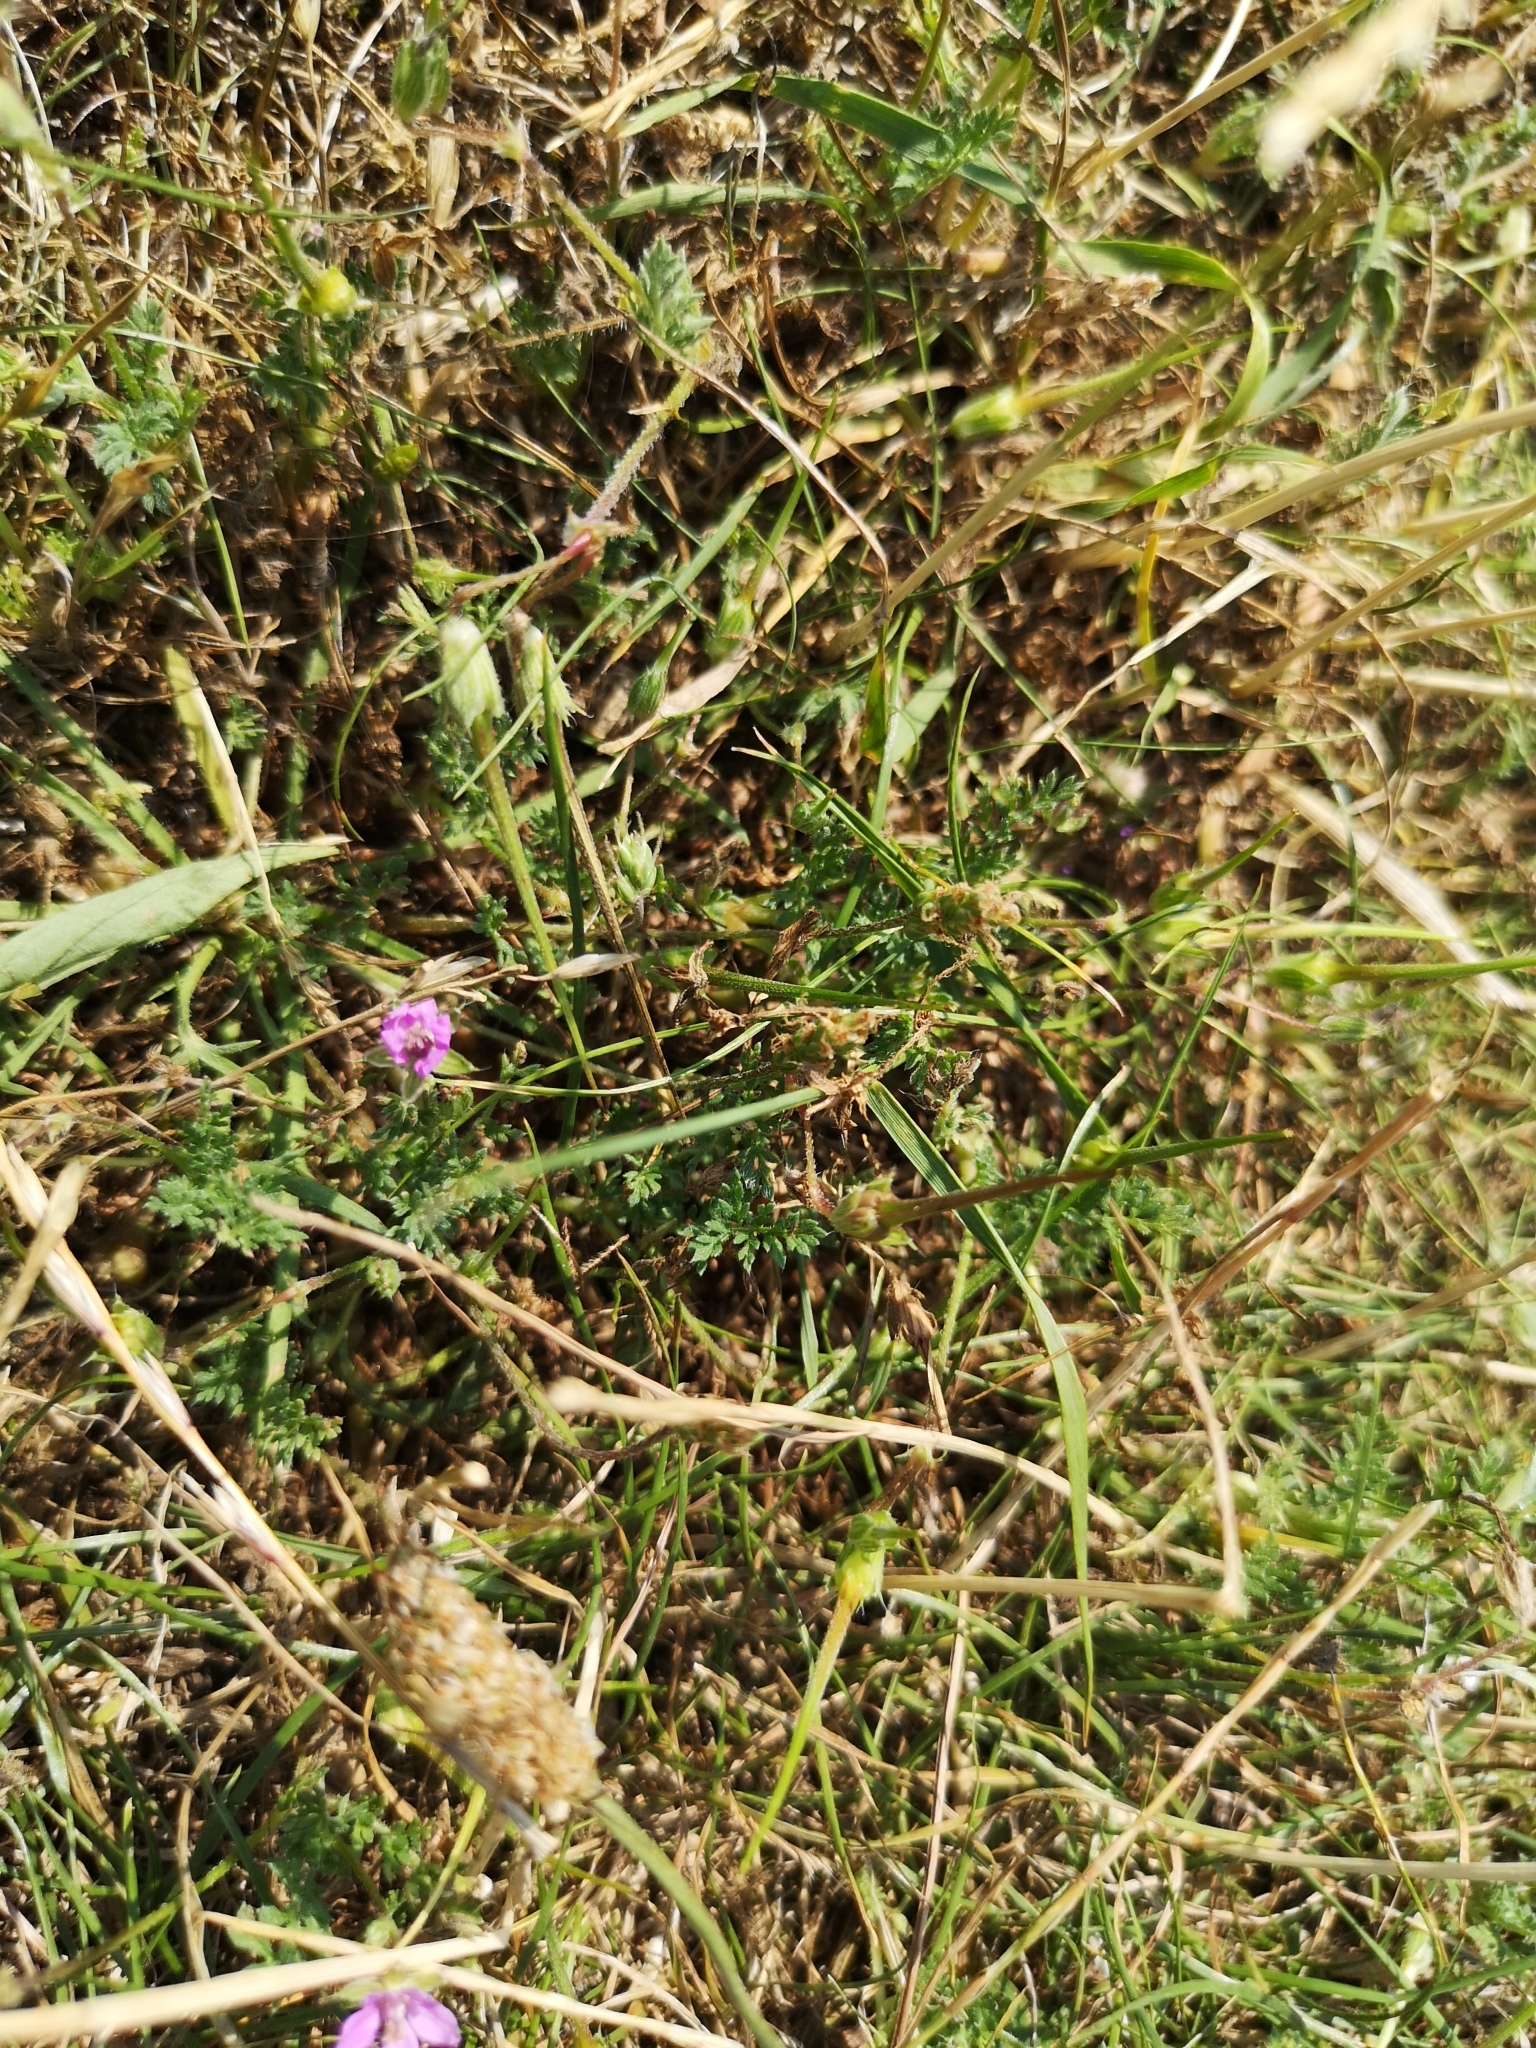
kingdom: Plantae
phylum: Tracheophyta
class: Magnoliopsida
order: Geraniales
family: Geraniaceae
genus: Erodium
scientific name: Erodium cicutarium
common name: Common stork's-bill
